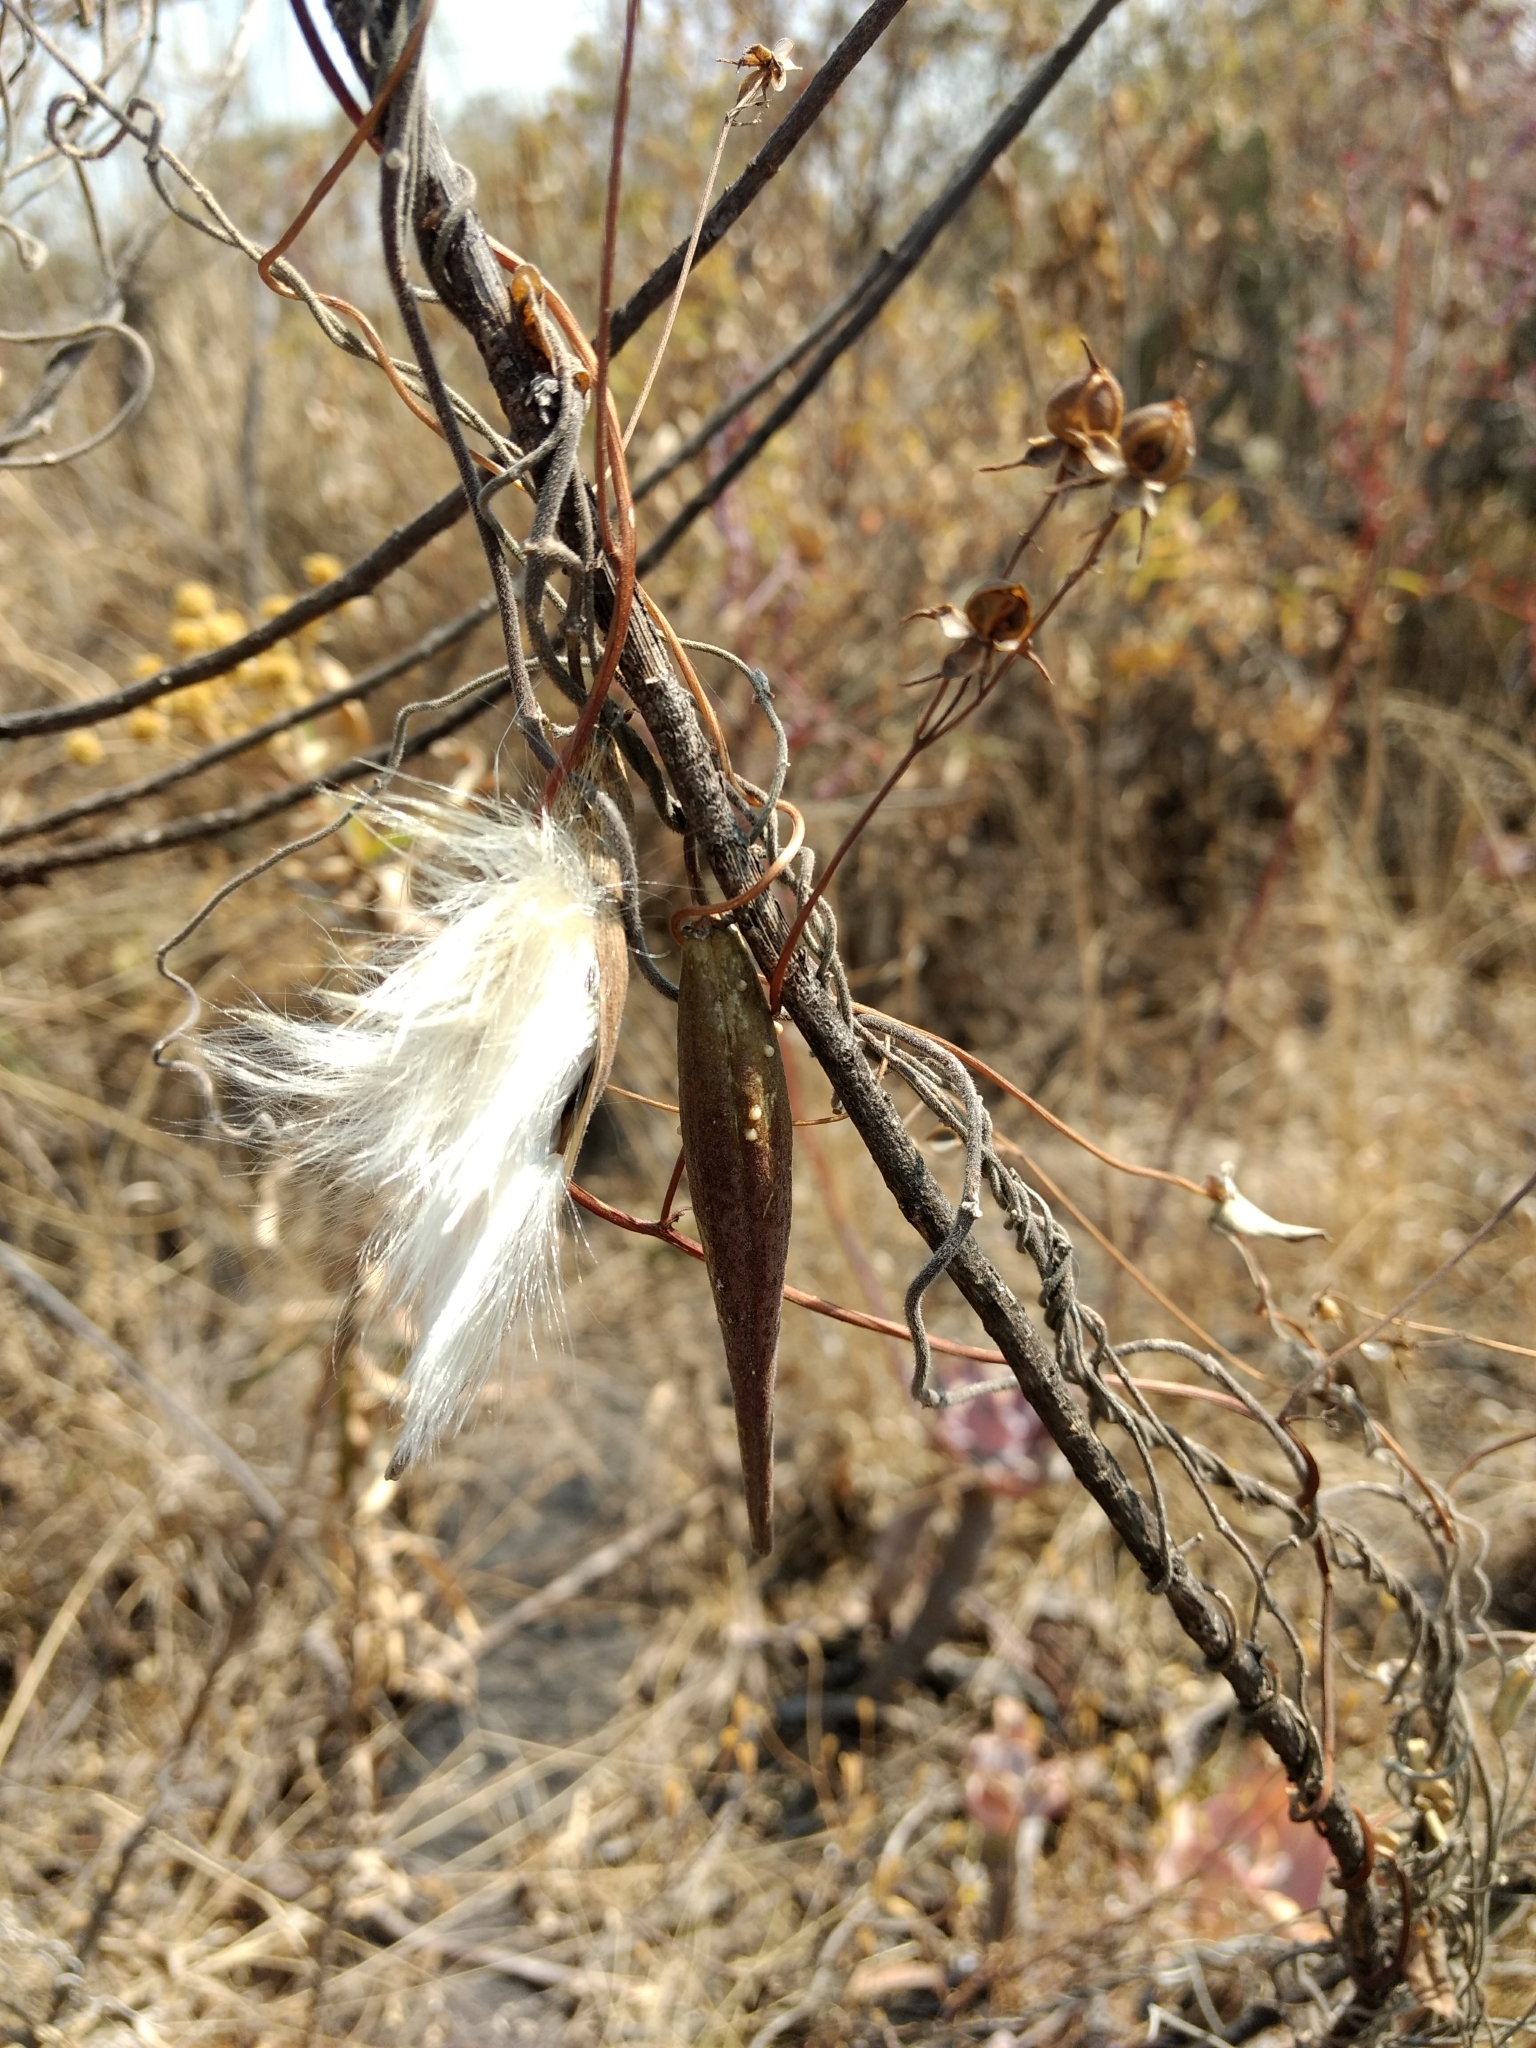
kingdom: Plantae
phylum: Tracheophyta
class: Magnoliopsida
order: Gentianales
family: Apocynaceae
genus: Funastrum
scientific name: Funastrum elegans
